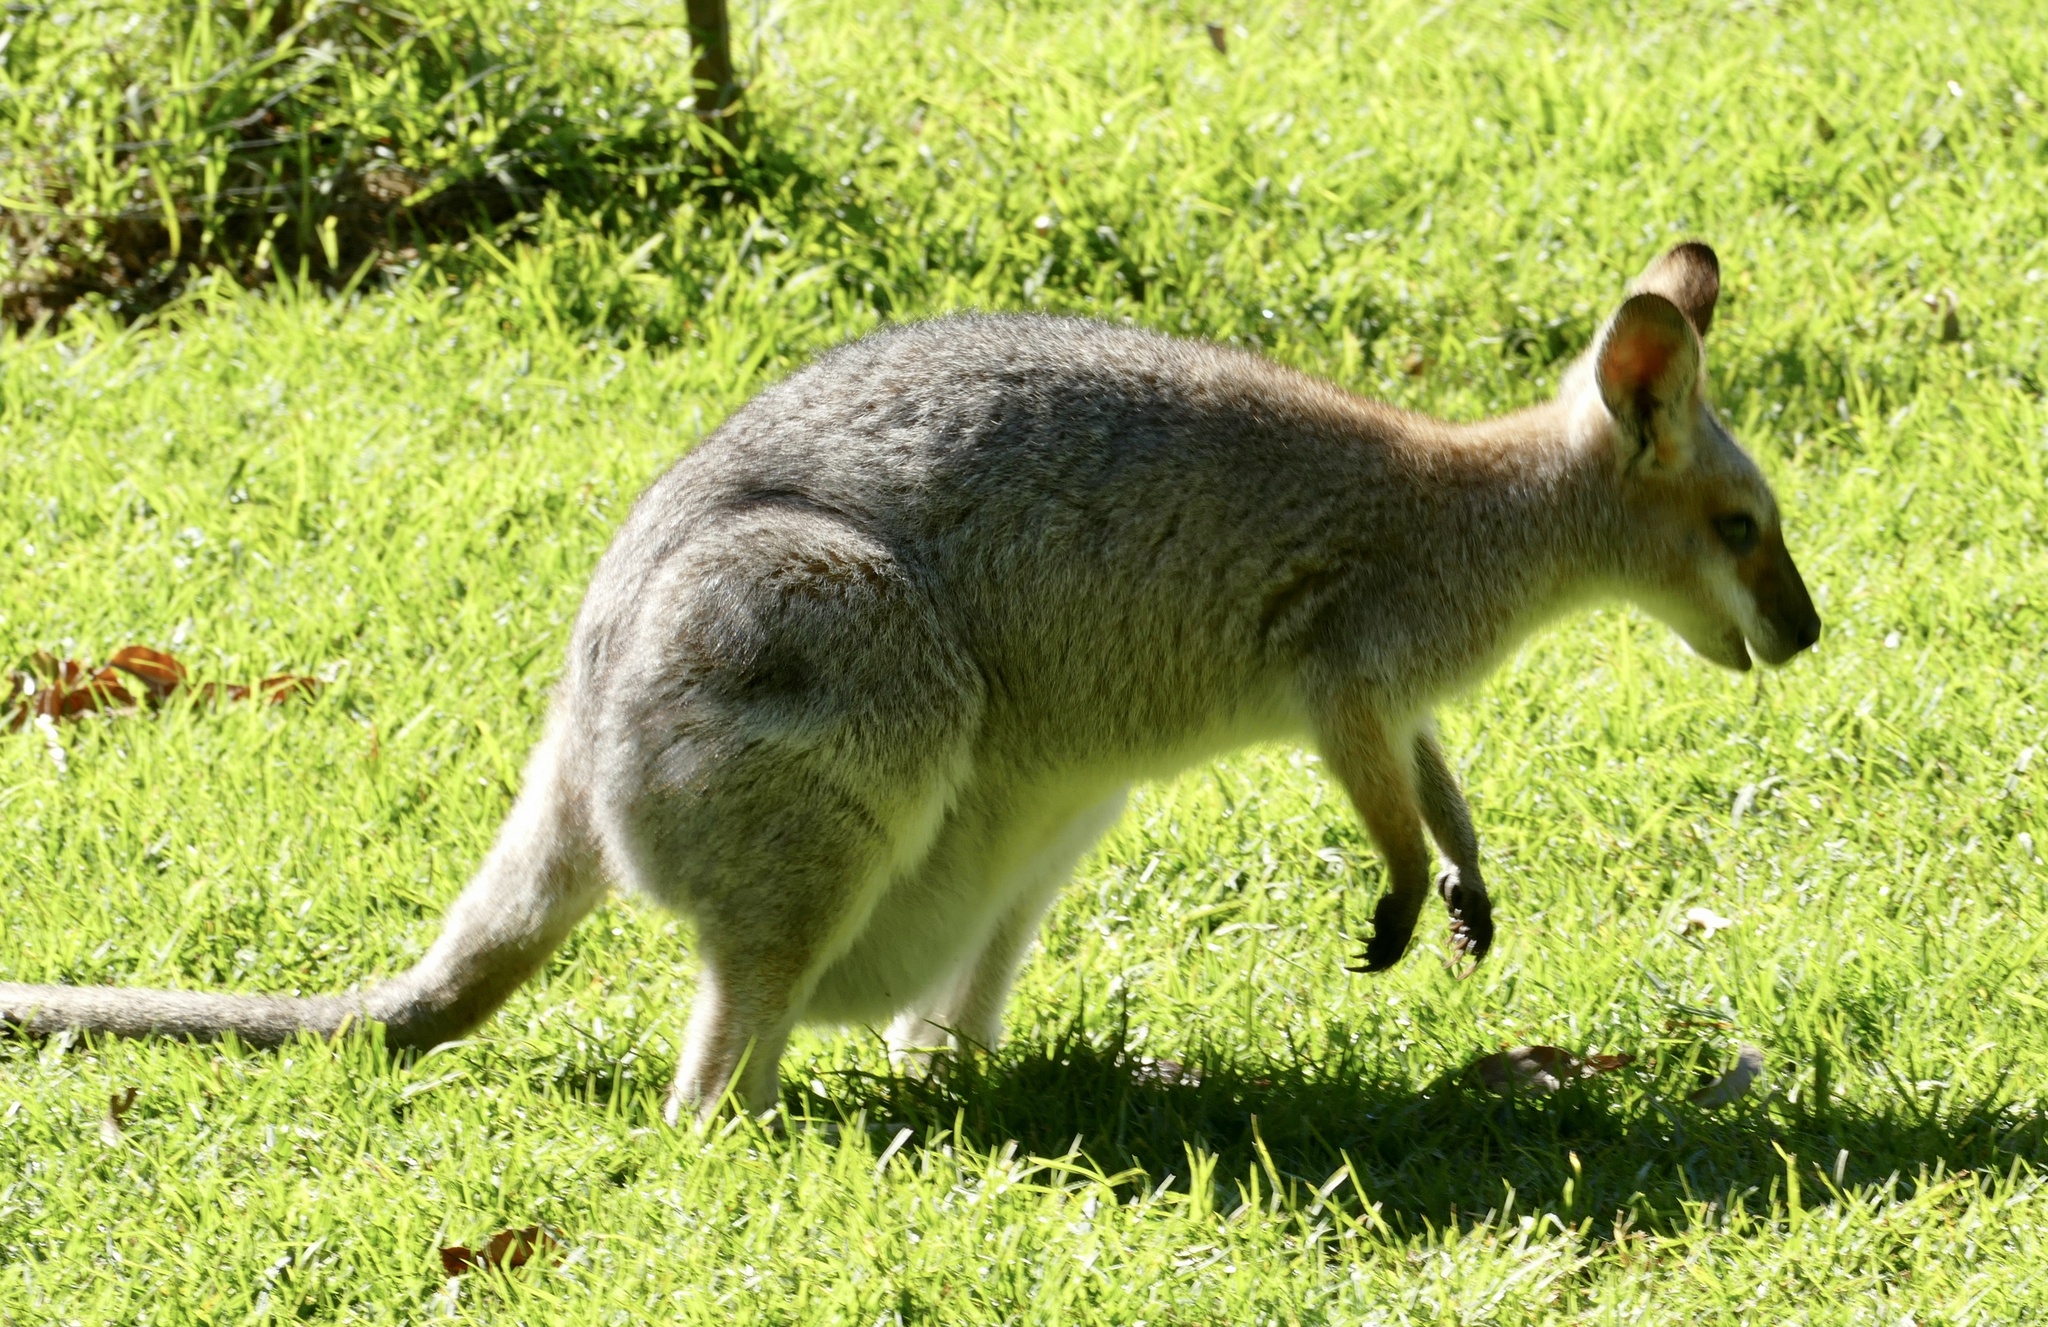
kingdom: Animalia
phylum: Chordata
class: Mammalia
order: Diprotodontia
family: Macropodidae
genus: Notamacropus
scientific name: Notamacropus rufogriseus
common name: Red-necked wallaby
